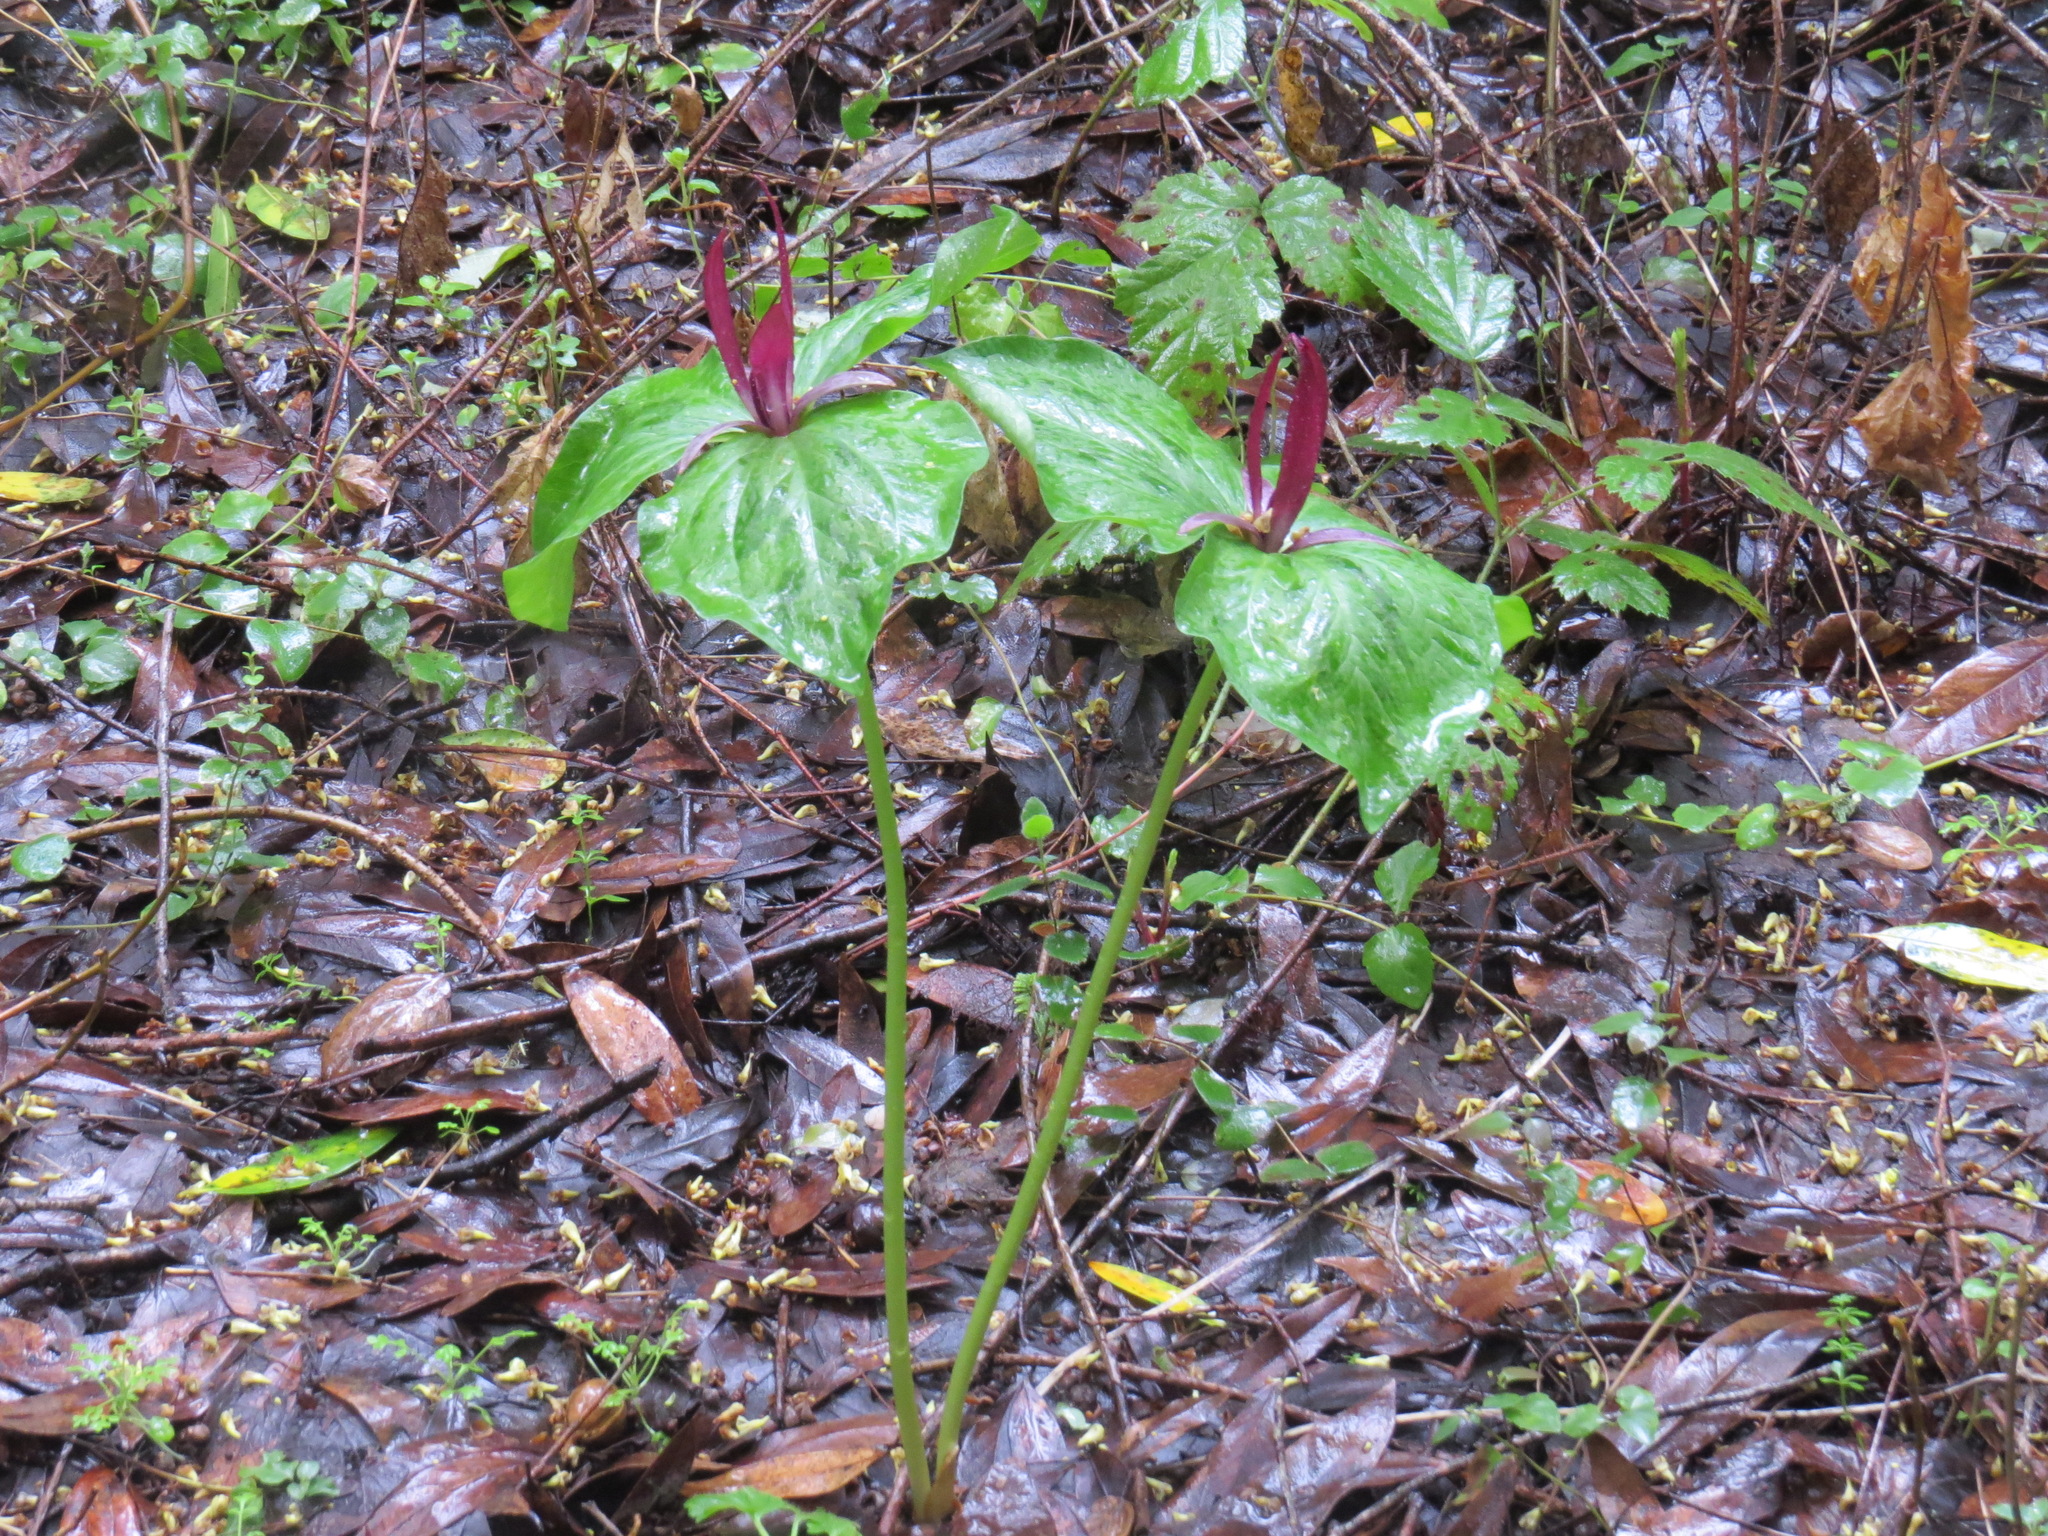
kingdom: Plantae
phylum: Tracheophyta
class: Liliopsida
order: Liliales
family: Melanthiaceae
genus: Trillium
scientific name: Trillium chloropetalum
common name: Giant trillium
